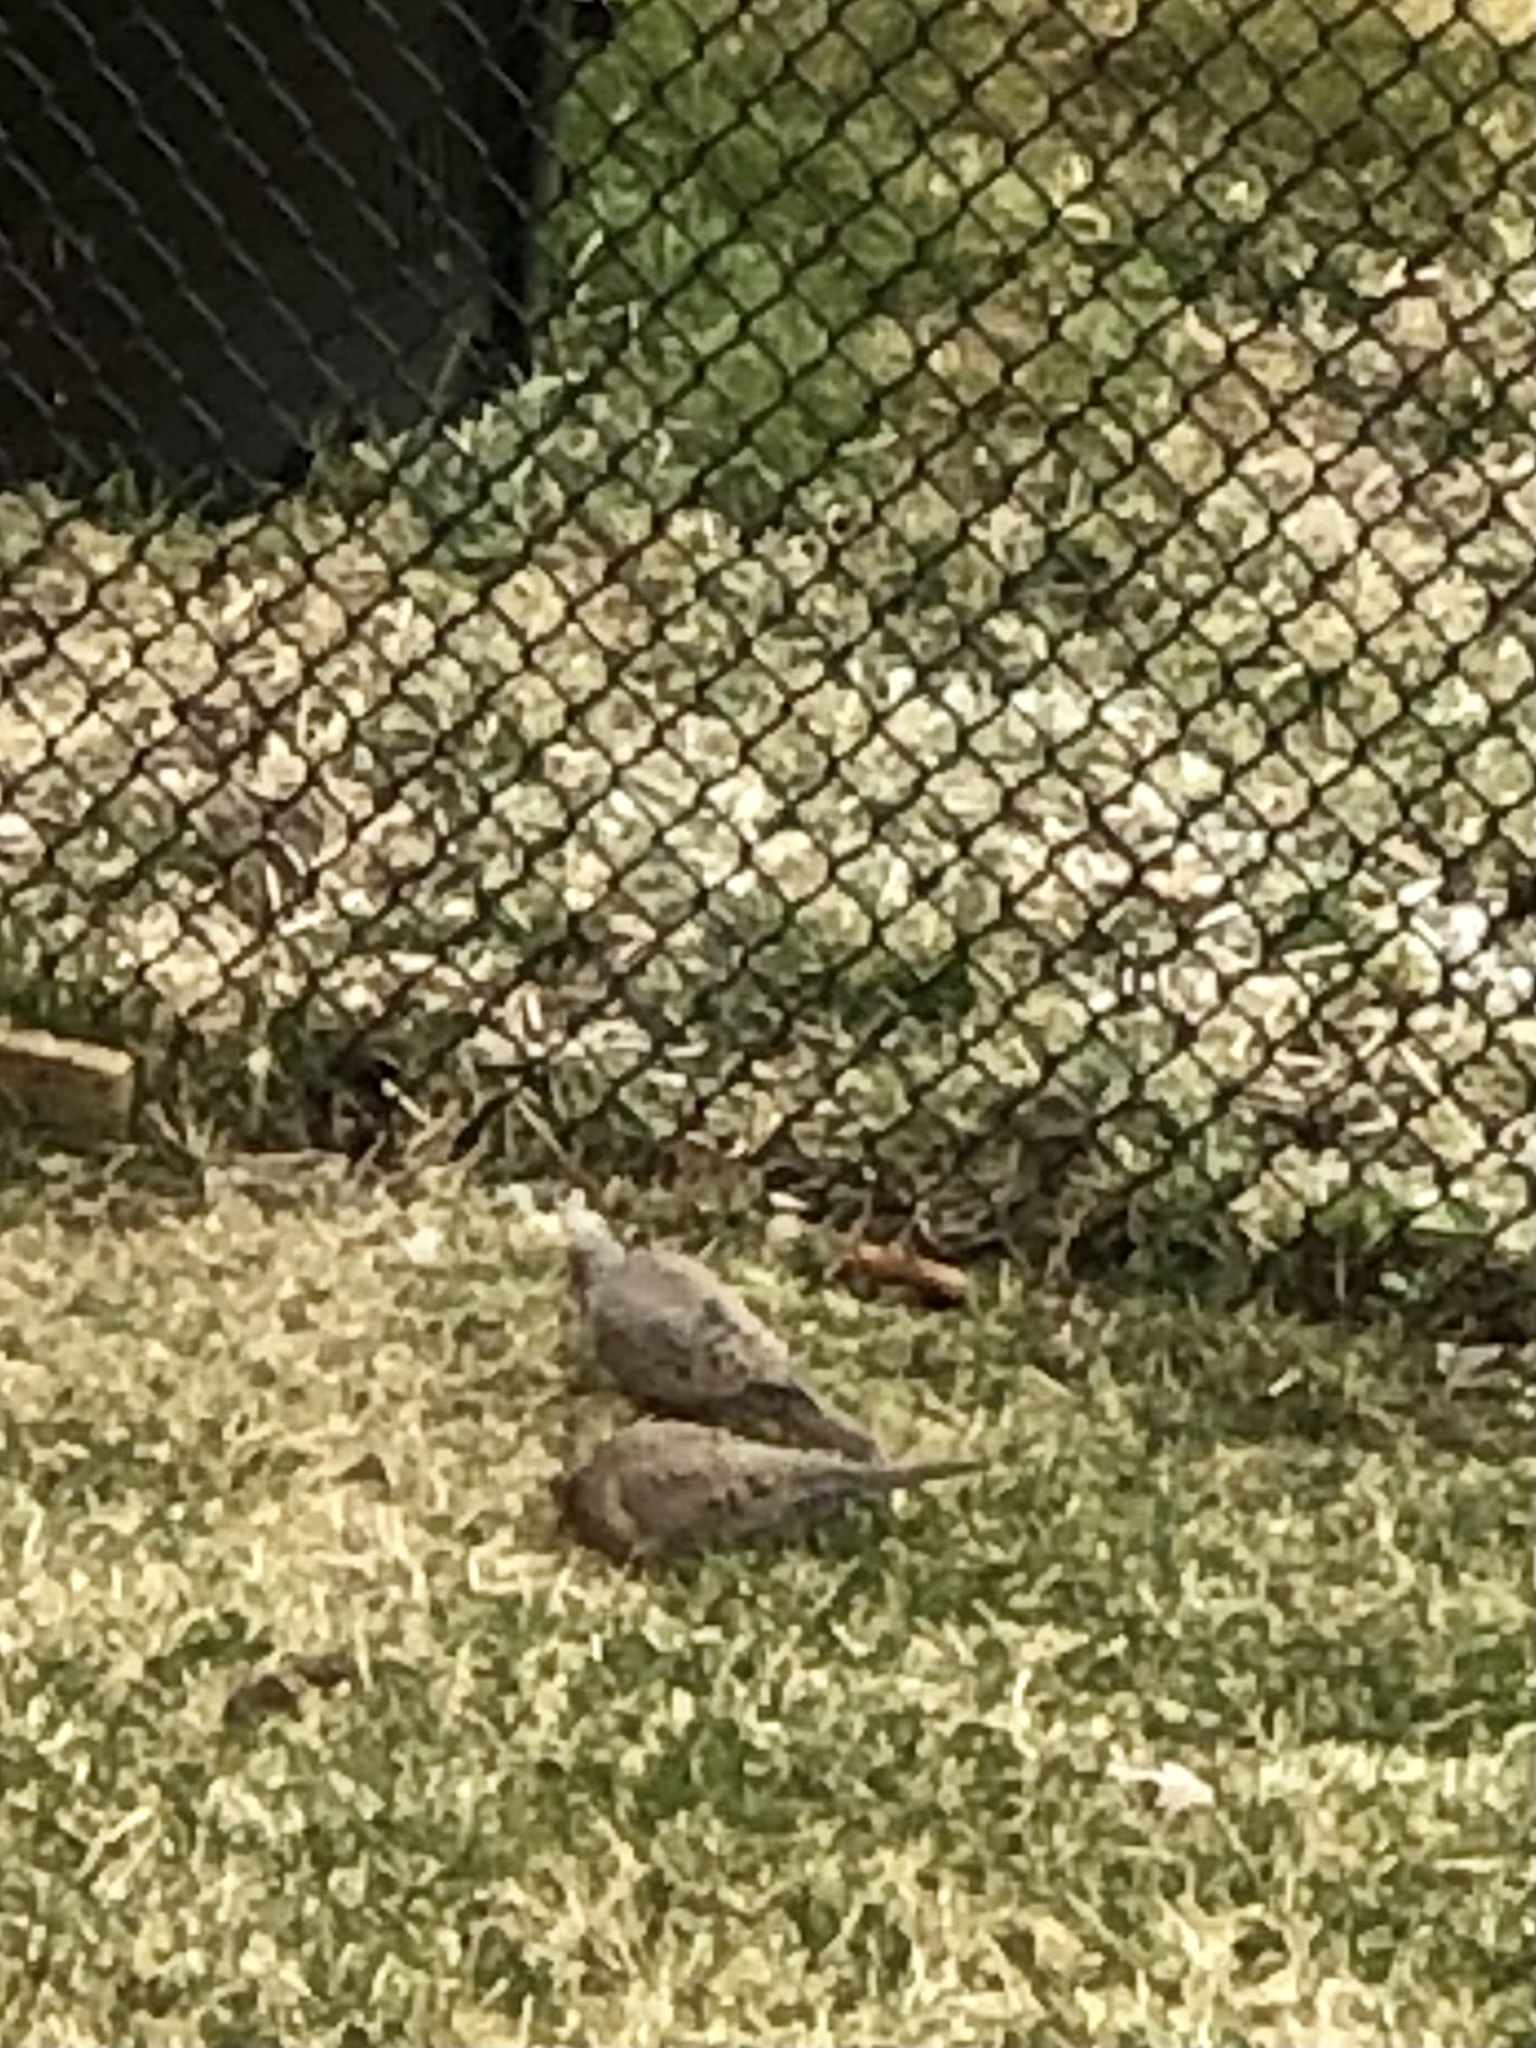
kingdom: Animalia
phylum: Chordata
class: Aves
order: Columbiformes
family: Columbidae
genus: Zenaida
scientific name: Zenaida macroura
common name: Mourning dove
